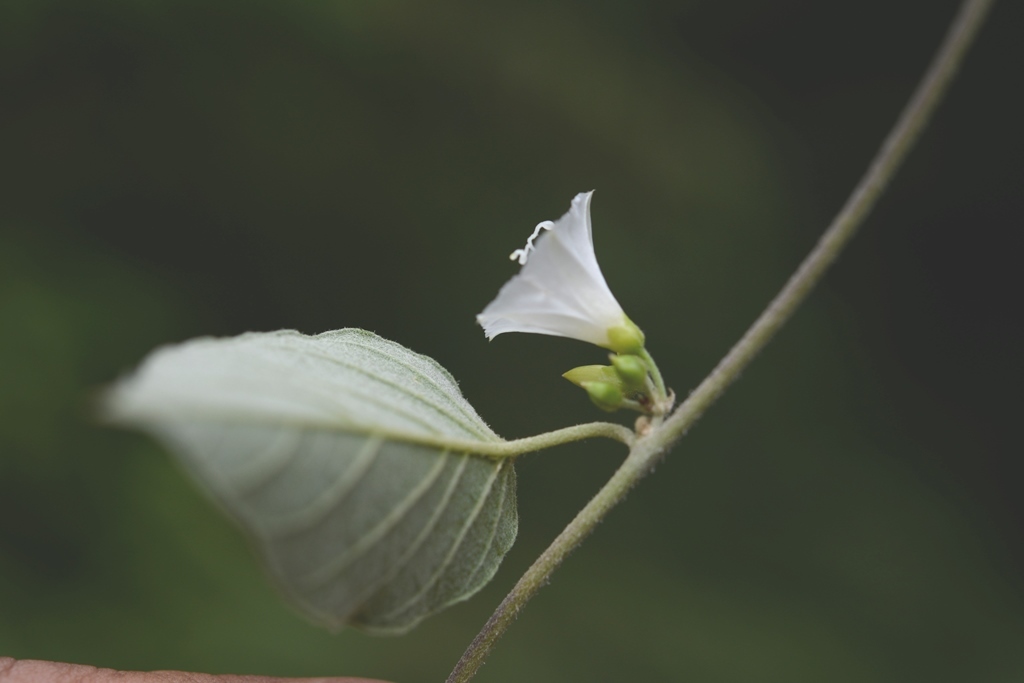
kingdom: Plantae
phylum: Tracheophyta
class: Magnoliopsida
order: Solanales
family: Convolvulaceae
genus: Jacquemontia
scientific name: Jacquemontia nodiflora
